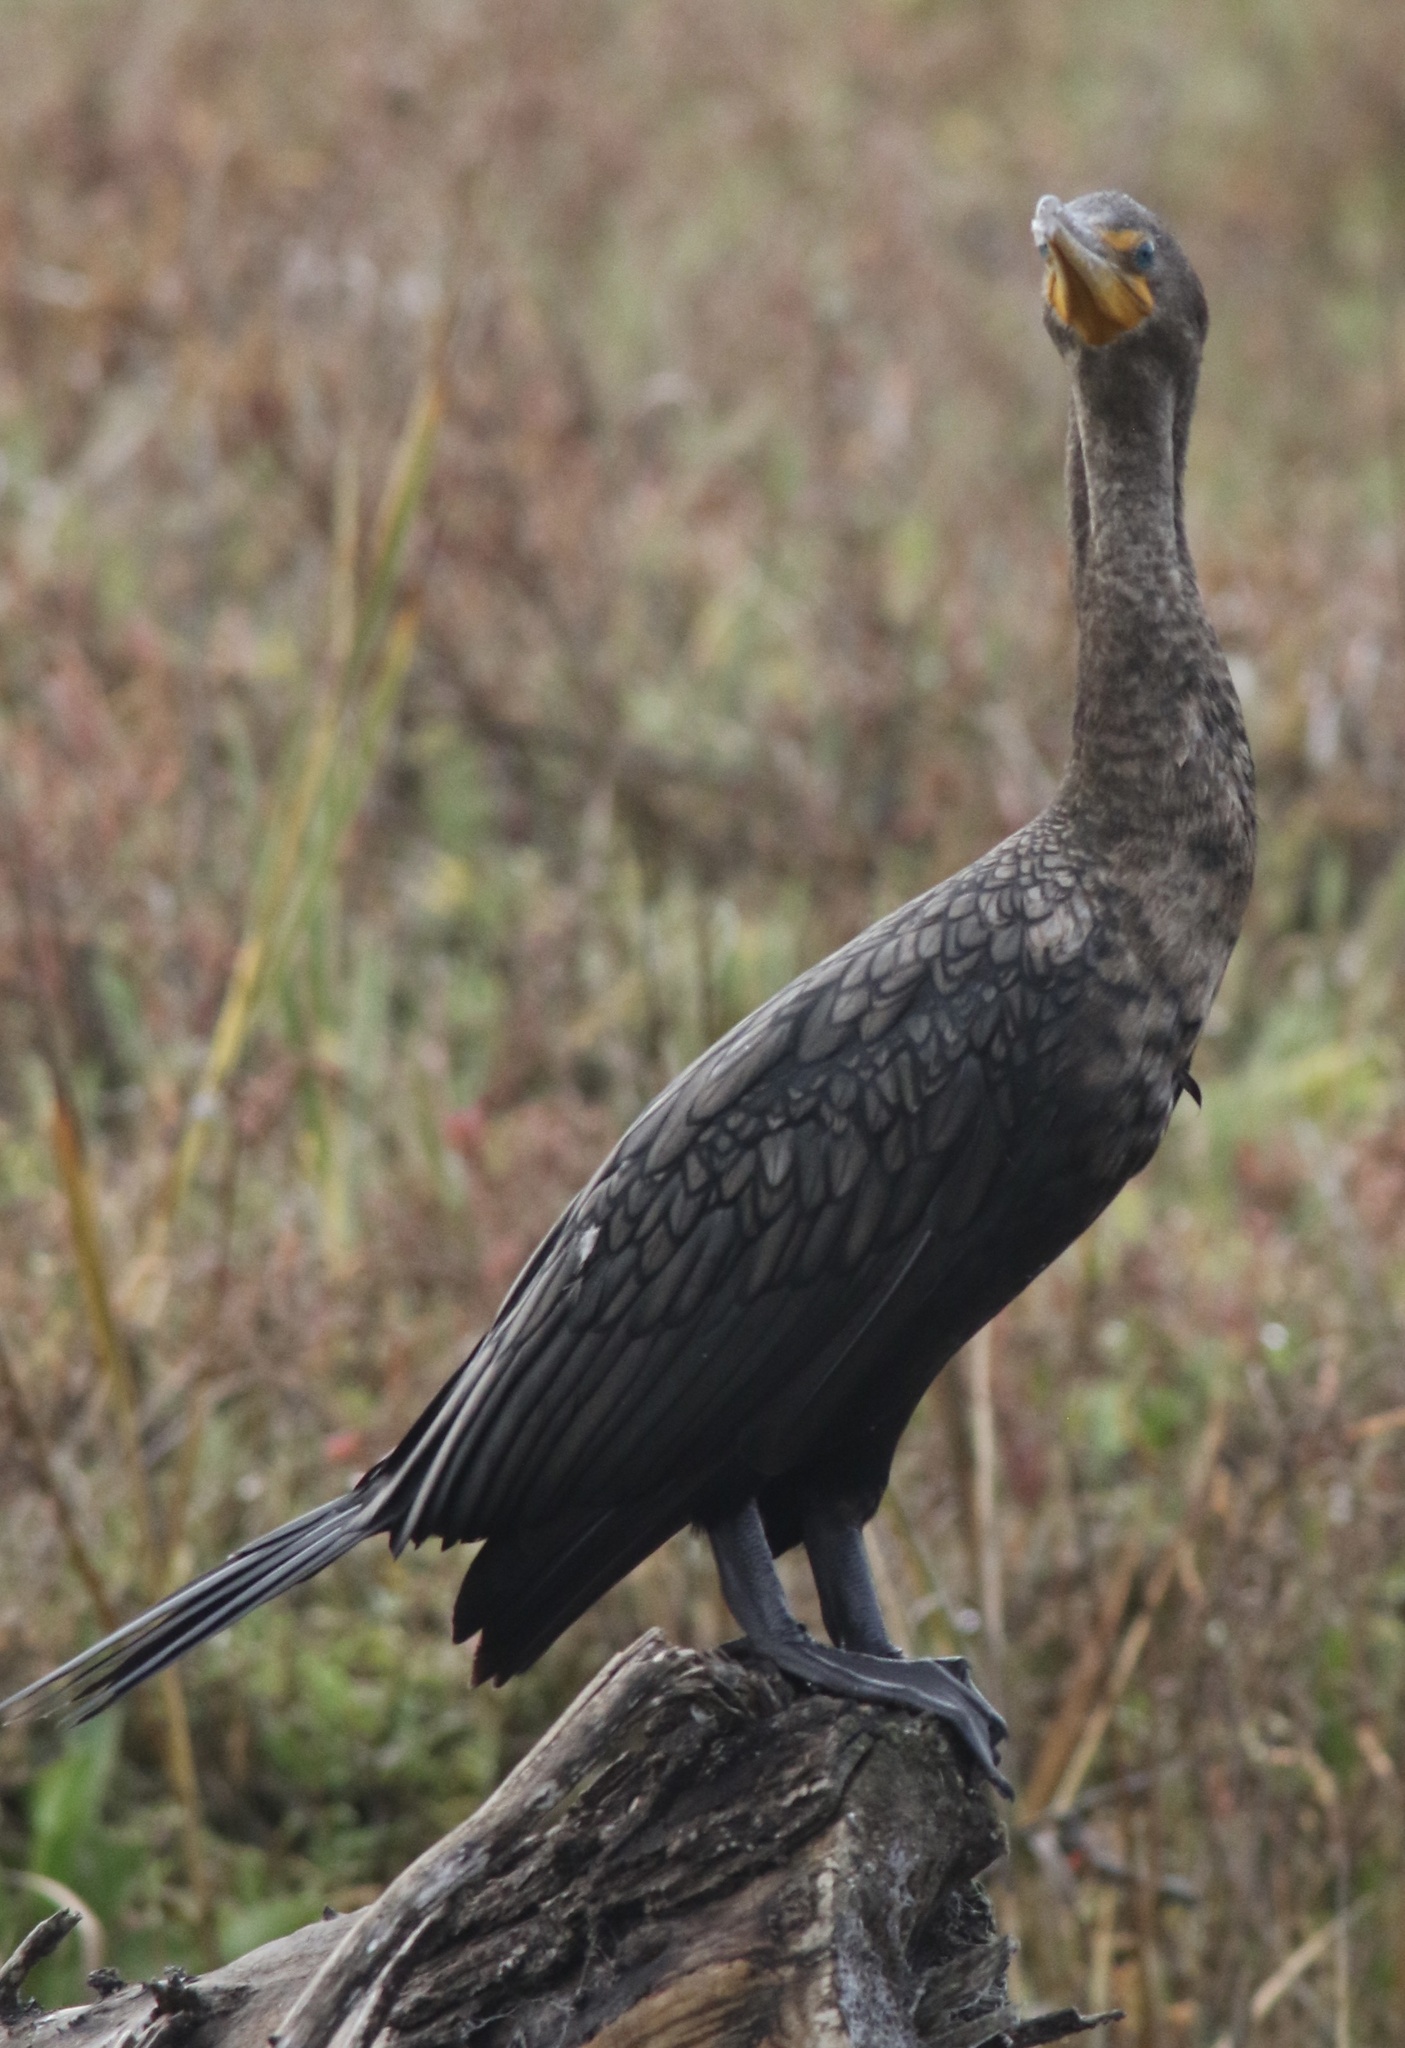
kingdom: Animalia
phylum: Chordata
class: Aves
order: Suliformes
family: Phalacrocoracidae
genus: Phalacrocorax
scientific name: Phalacrocorax auritus
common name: Double-crested cormorant
